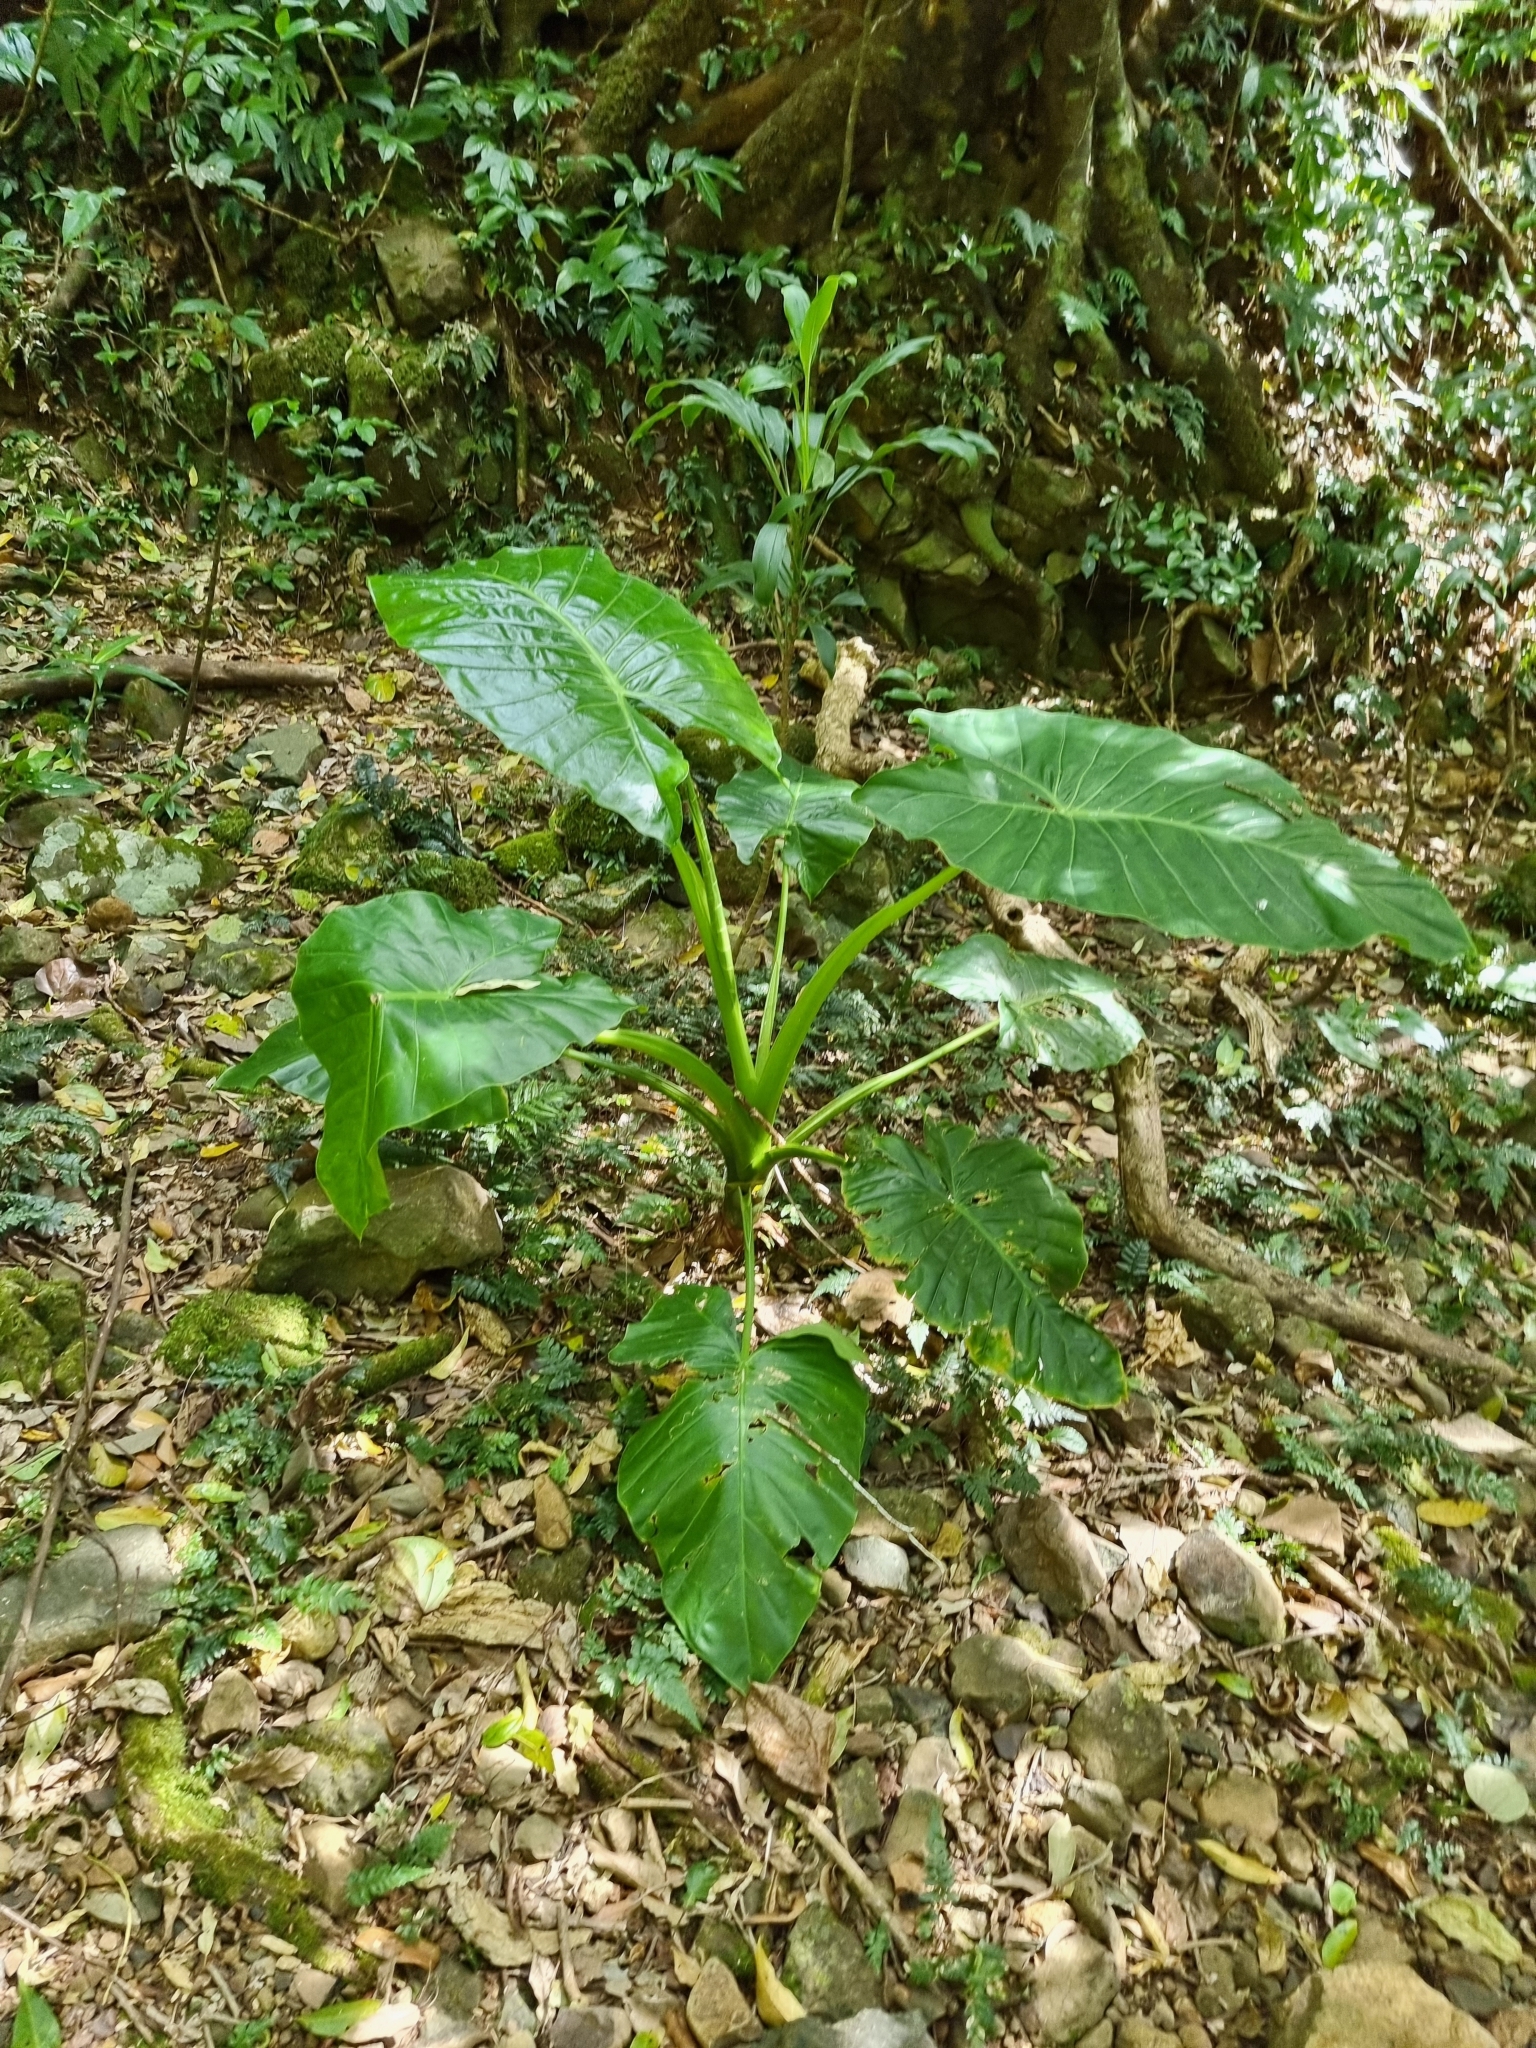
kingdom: Plantae
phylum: Tracheophyta
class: Liliopsida
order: Alismatales
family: Araceae
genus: Alocasia
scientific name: Alocasia brisbanensis
